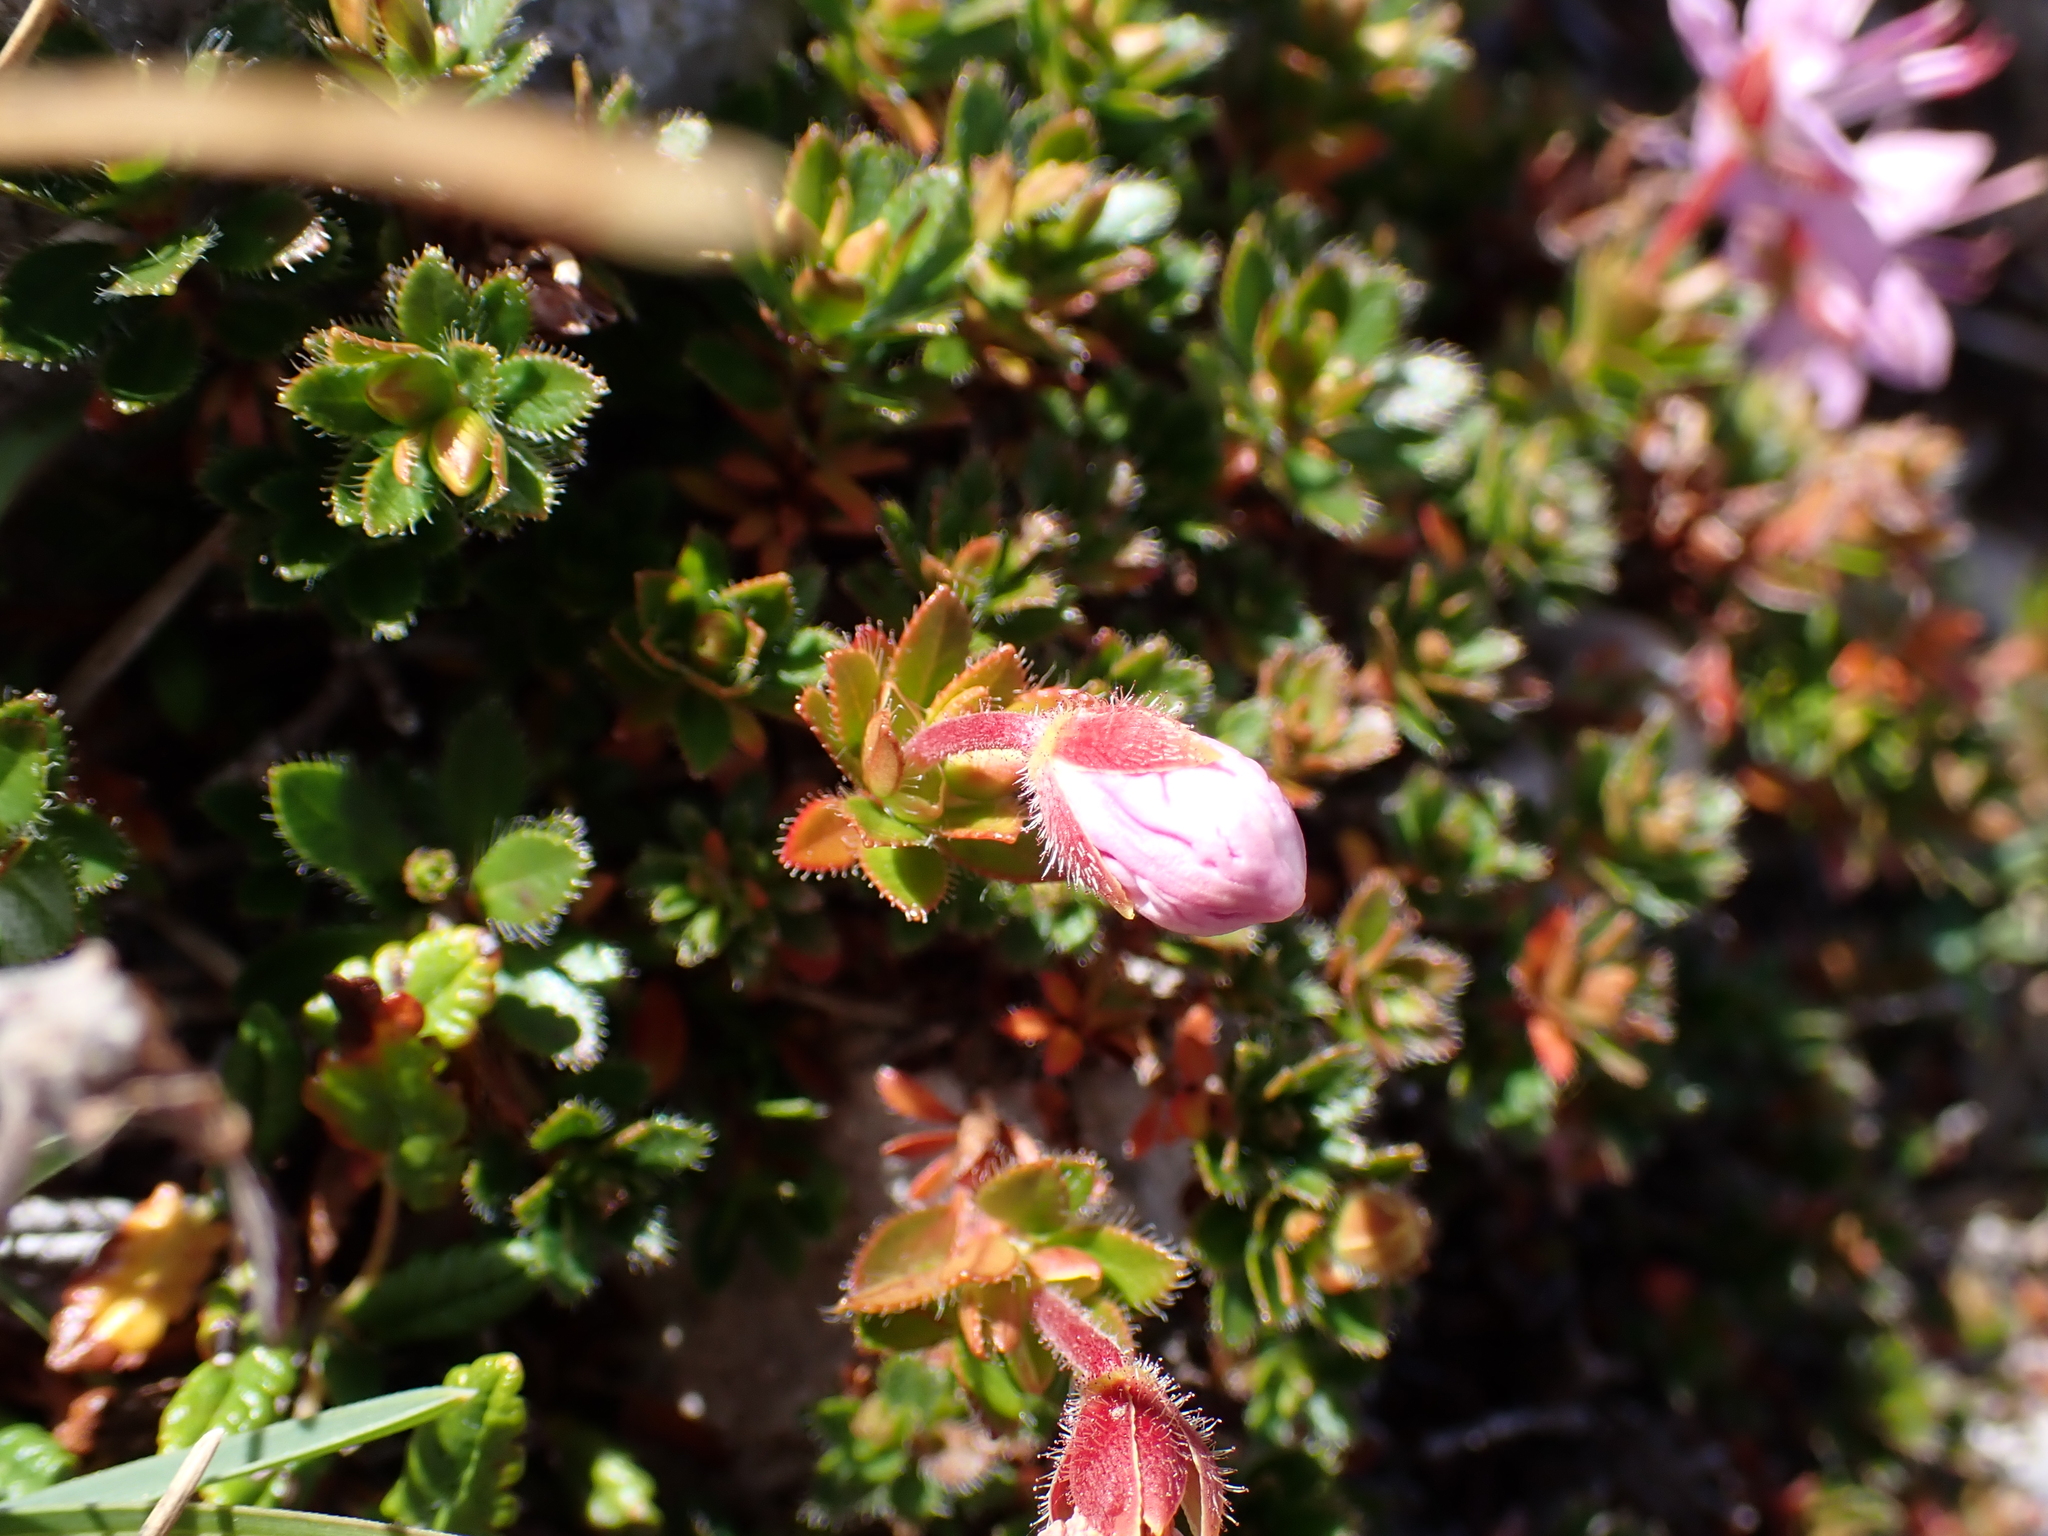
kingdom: Plantae
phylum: Tracheophyta
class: Magnoliopsida
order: Ericales
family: Ericaceae
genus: Rhodothamnus
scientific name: Rhodothamnus chamaecistus
